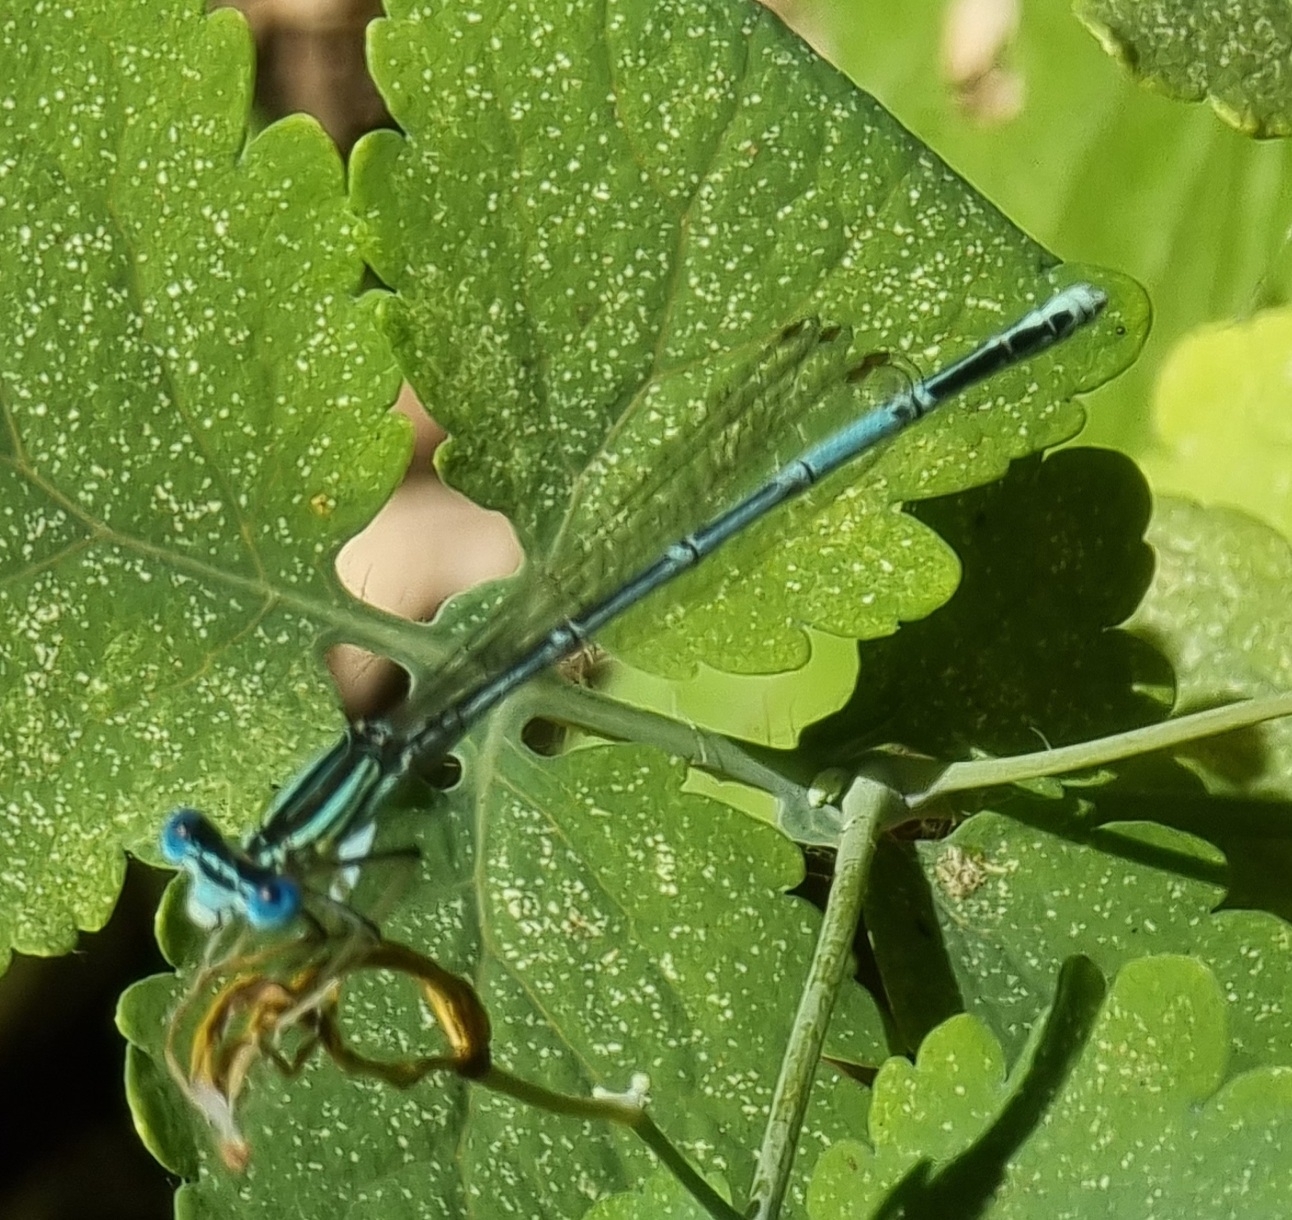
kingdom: Animalia
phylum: Arthropoda
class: Insecta
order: Odonata
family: Platycnemididae
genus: Platycnemis
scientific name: Platycnemis pennipes
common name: White-legged damselfly
